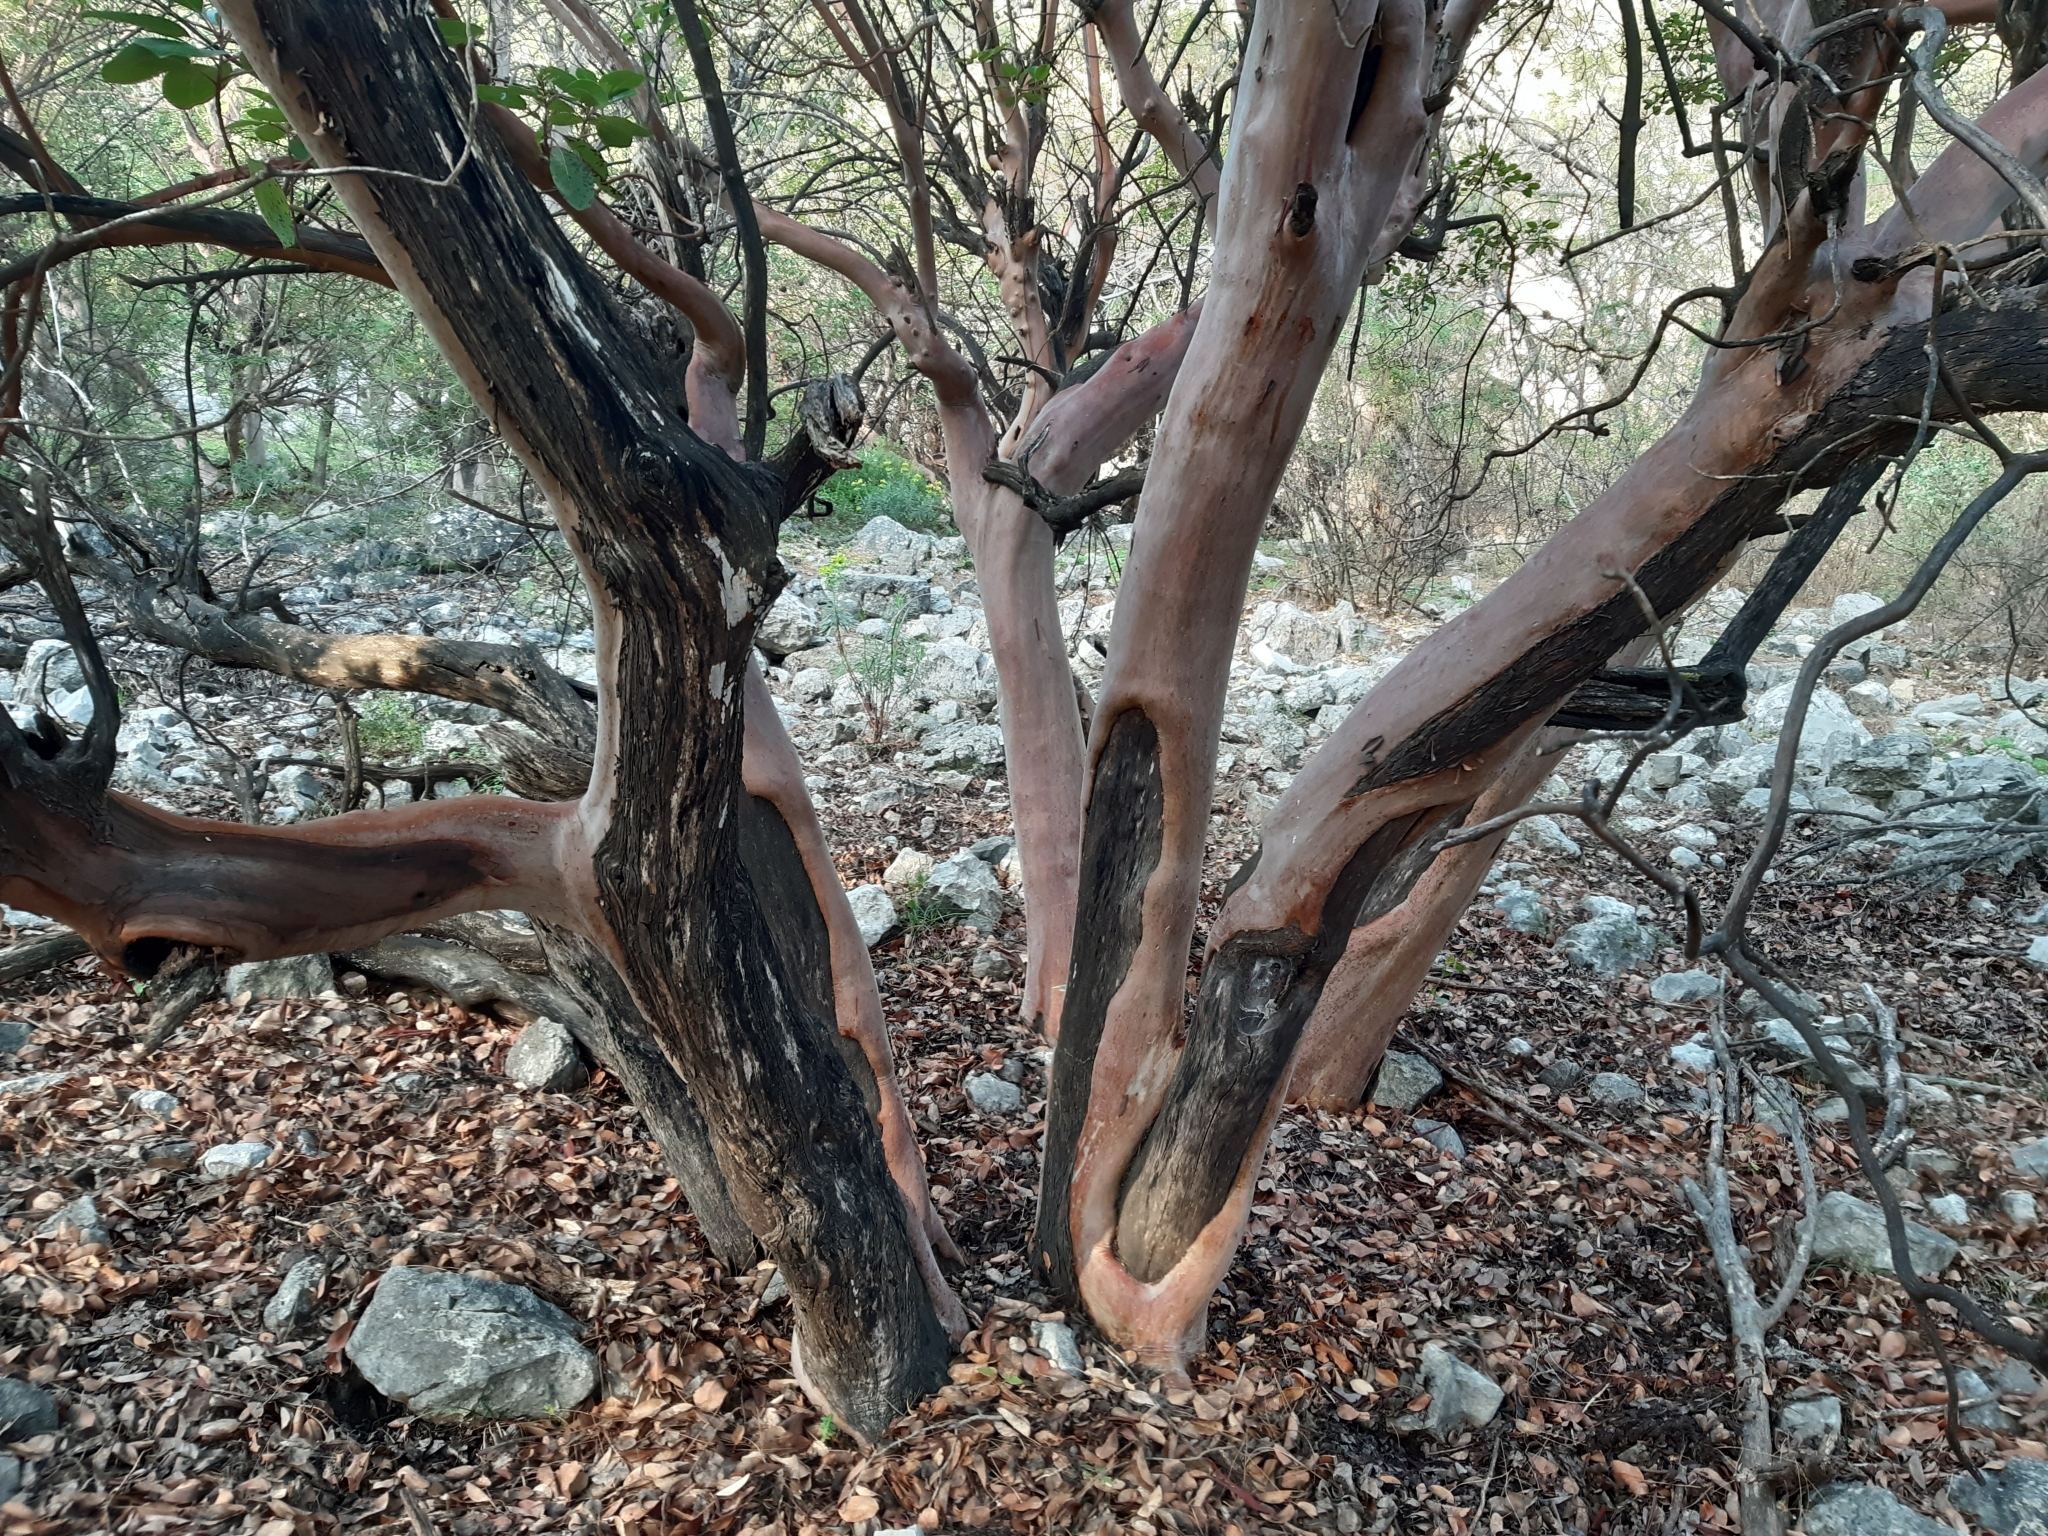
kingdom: Plantae
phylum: Tracheophyta
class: Magnoliopsida
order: Ericales
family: Ericaceae
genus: Arbutus
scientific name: Arbutus andrachne
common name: Greek strawberry tree
